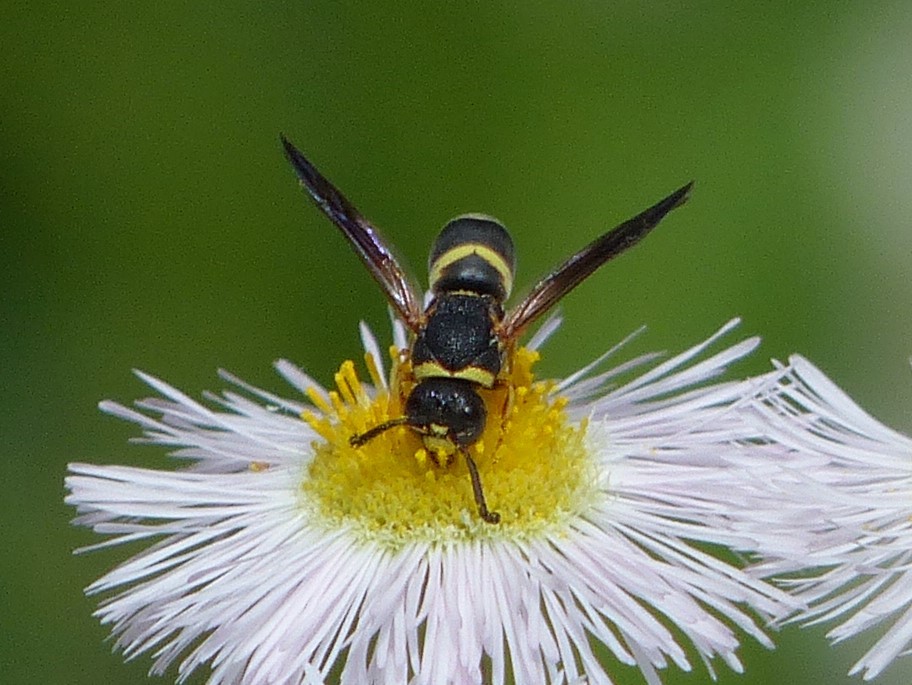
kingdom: Animalia
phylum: Arthropoda
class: Insecta
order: Hymenoptera
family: Eumenidae
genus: Euodynerus
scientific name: Euodynerus hidalgo
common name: Wasp
